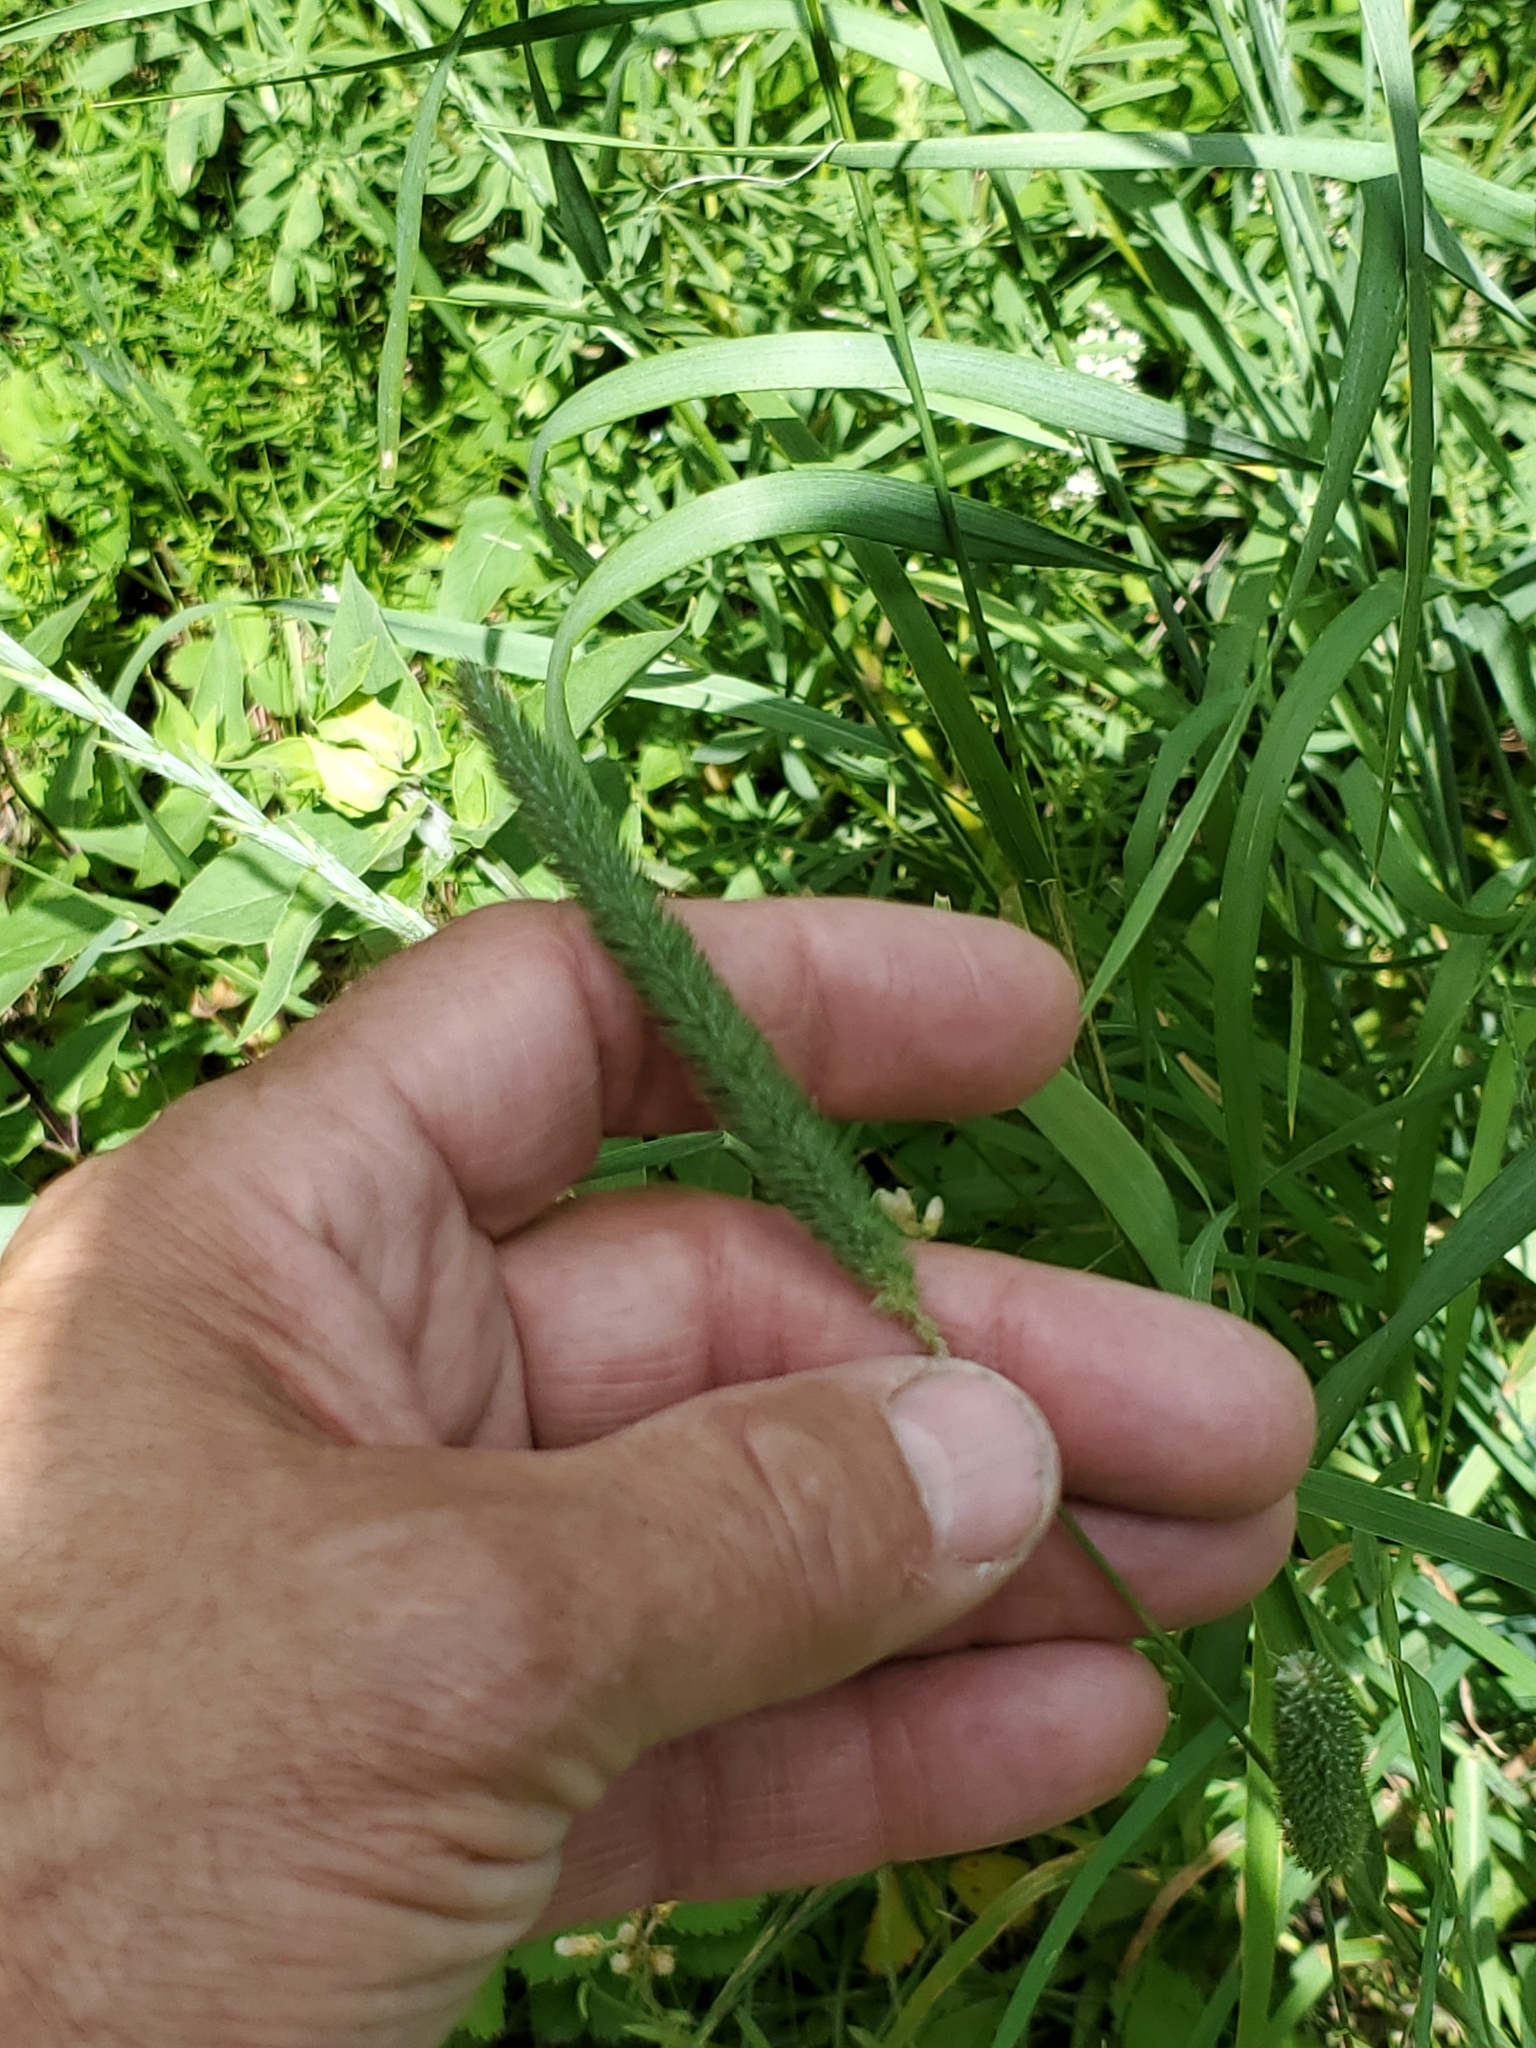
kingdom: Plantae
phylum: Tracheophyta
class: Liliopsida
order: Poales
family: Poaceae
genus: Phleum
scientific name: Phleum pratense
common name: Timothy grass
